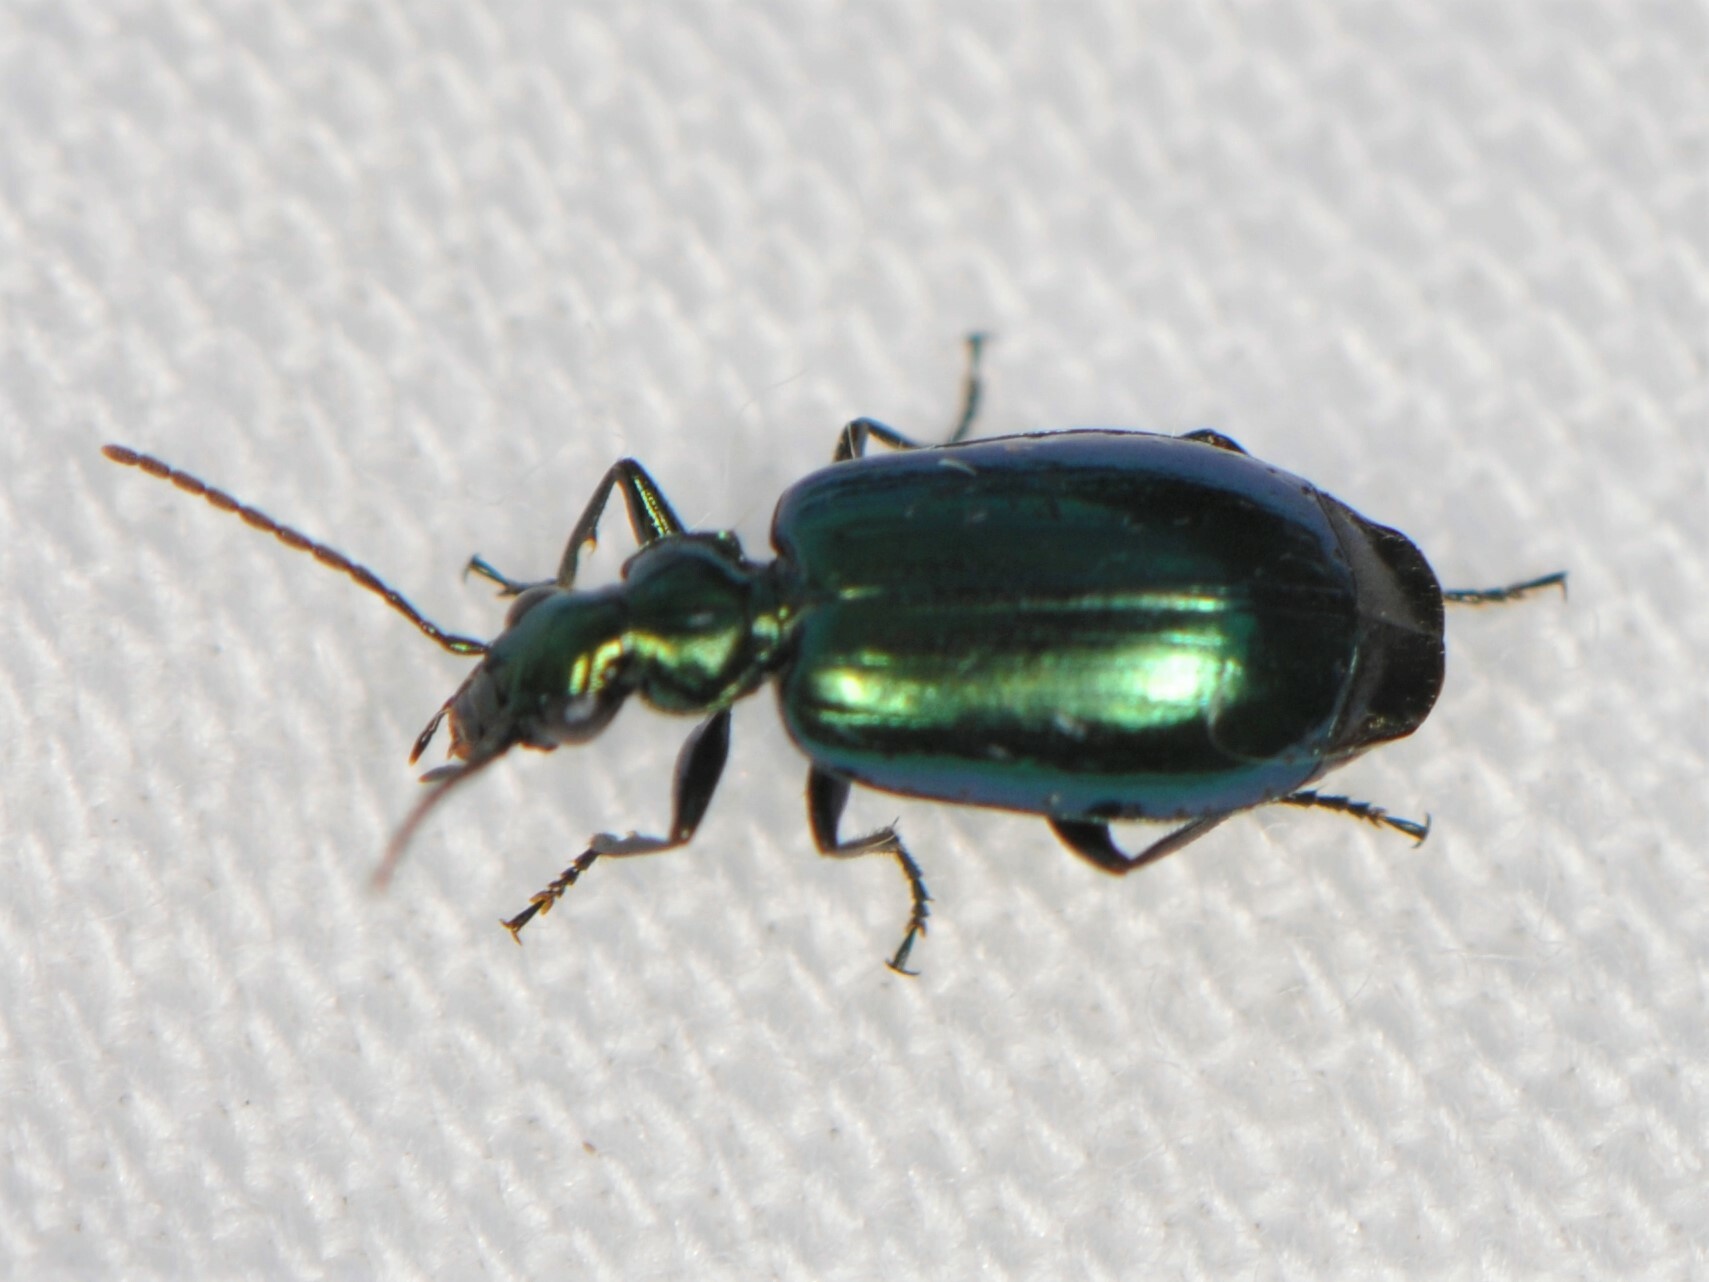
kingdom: Animalia
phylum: Arthropoda
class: Insecta
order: Coleoptera
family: Carabidae
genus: Lebia
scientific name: Lebia viridis
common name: Flower lebia beetle
